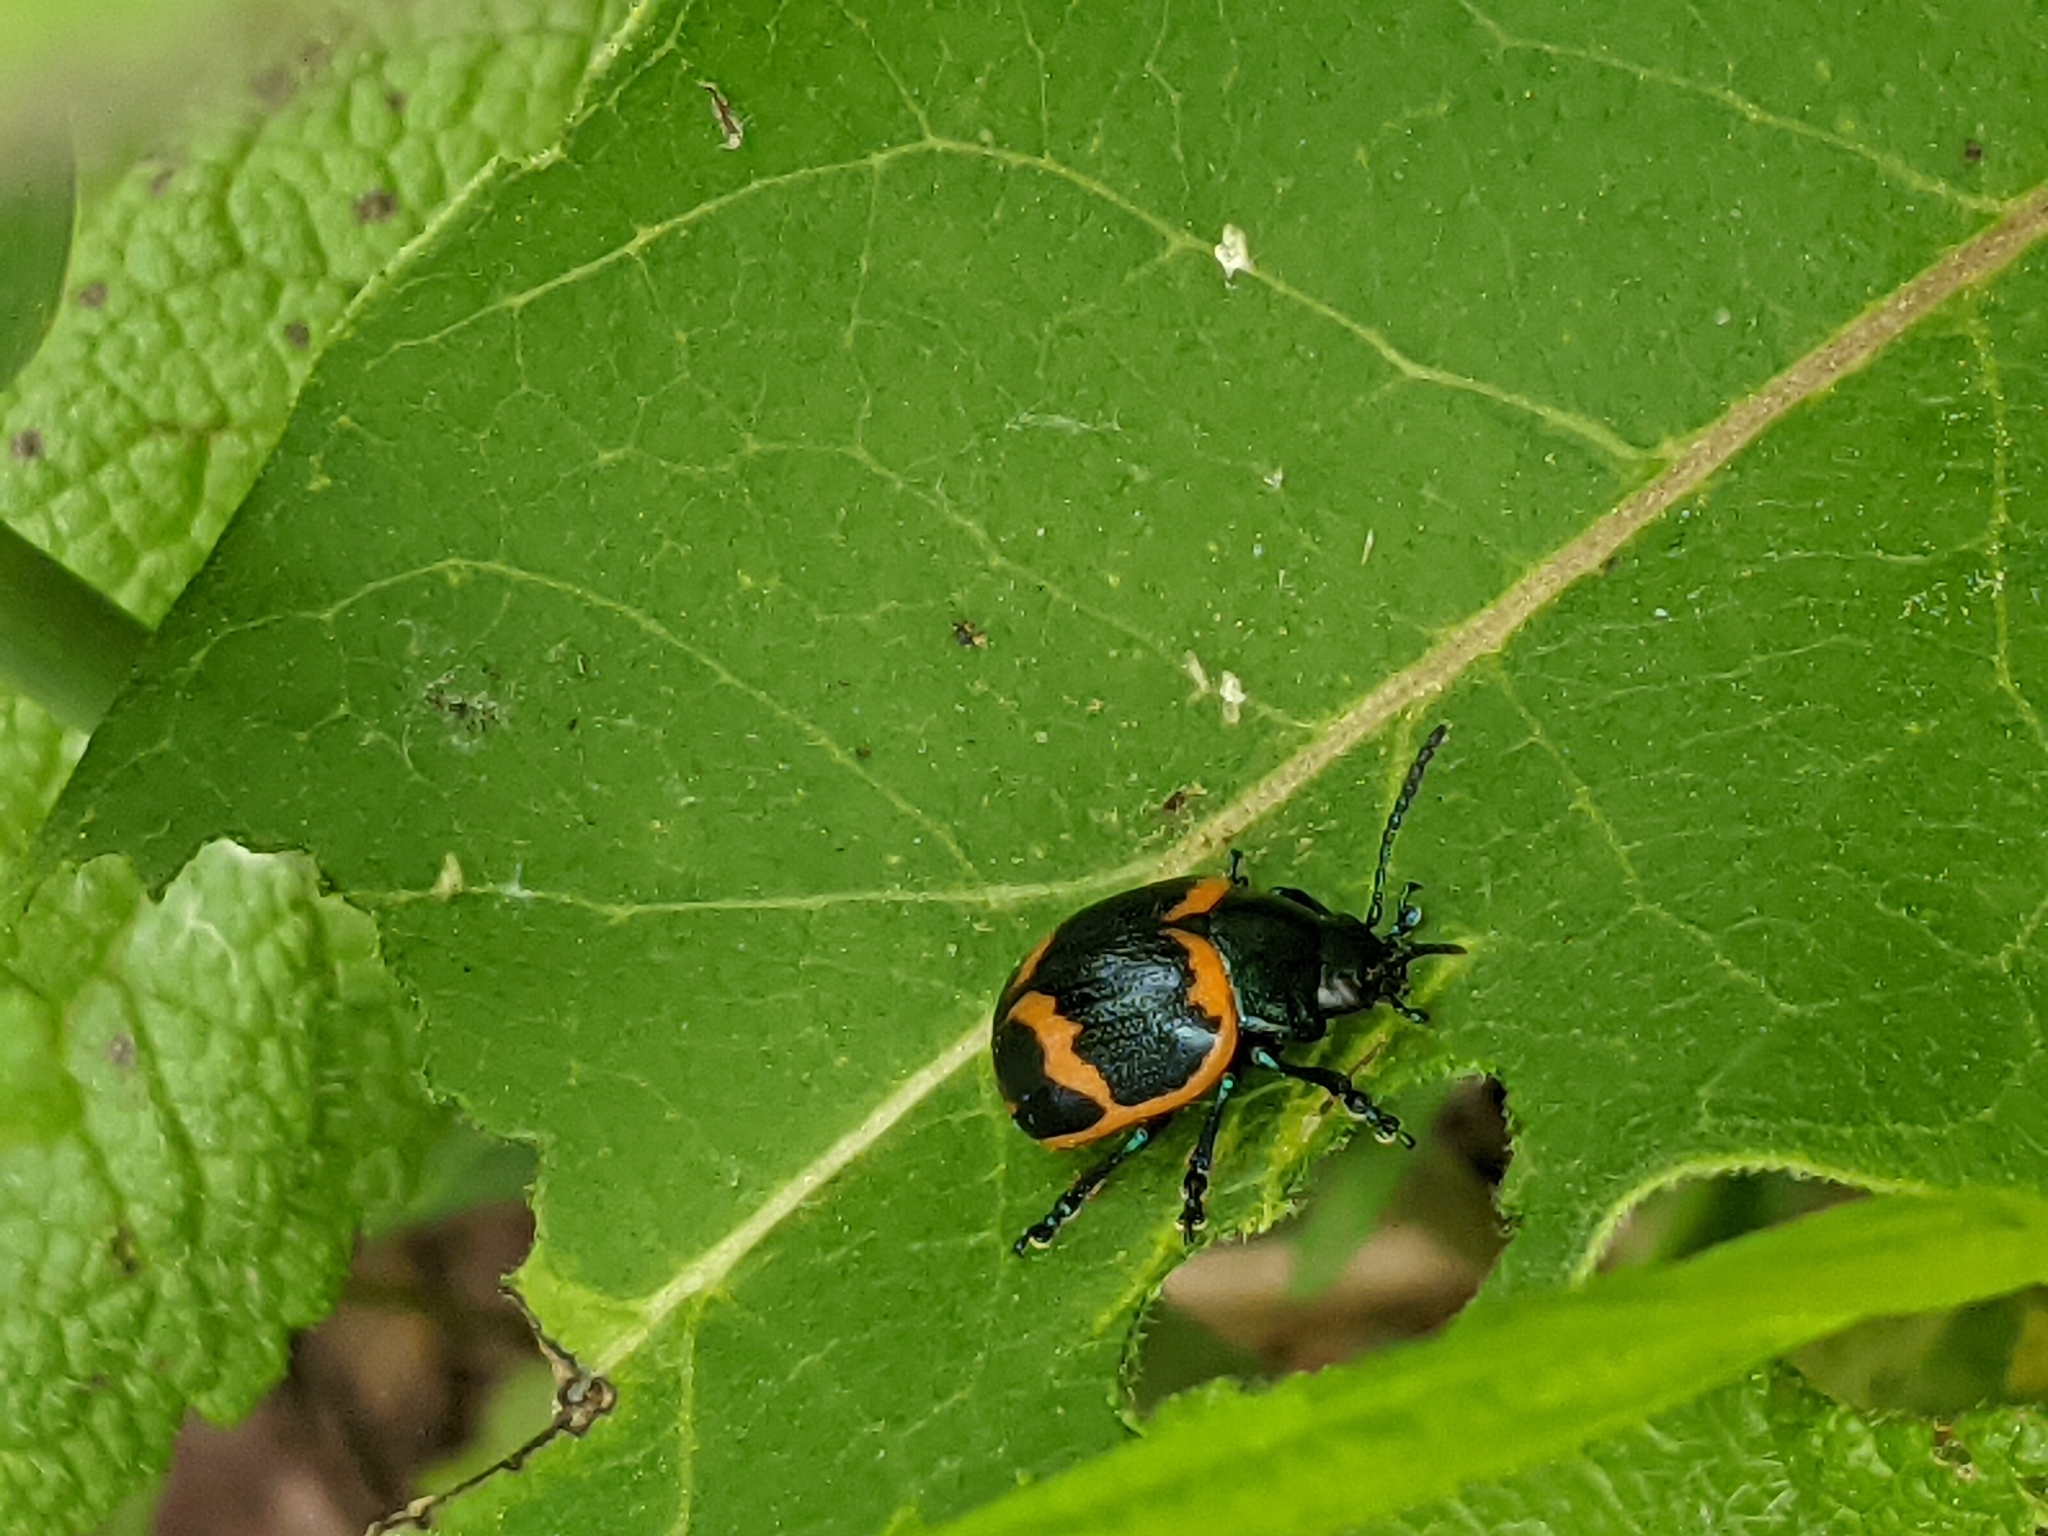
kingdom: Animalia
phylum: Arthropoda
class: Insecta
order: Coleoptera
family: Chrysomelidae
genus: Labidomera
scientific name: Labidomera clivicollis
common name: Swamp milkweed leaf beetle
